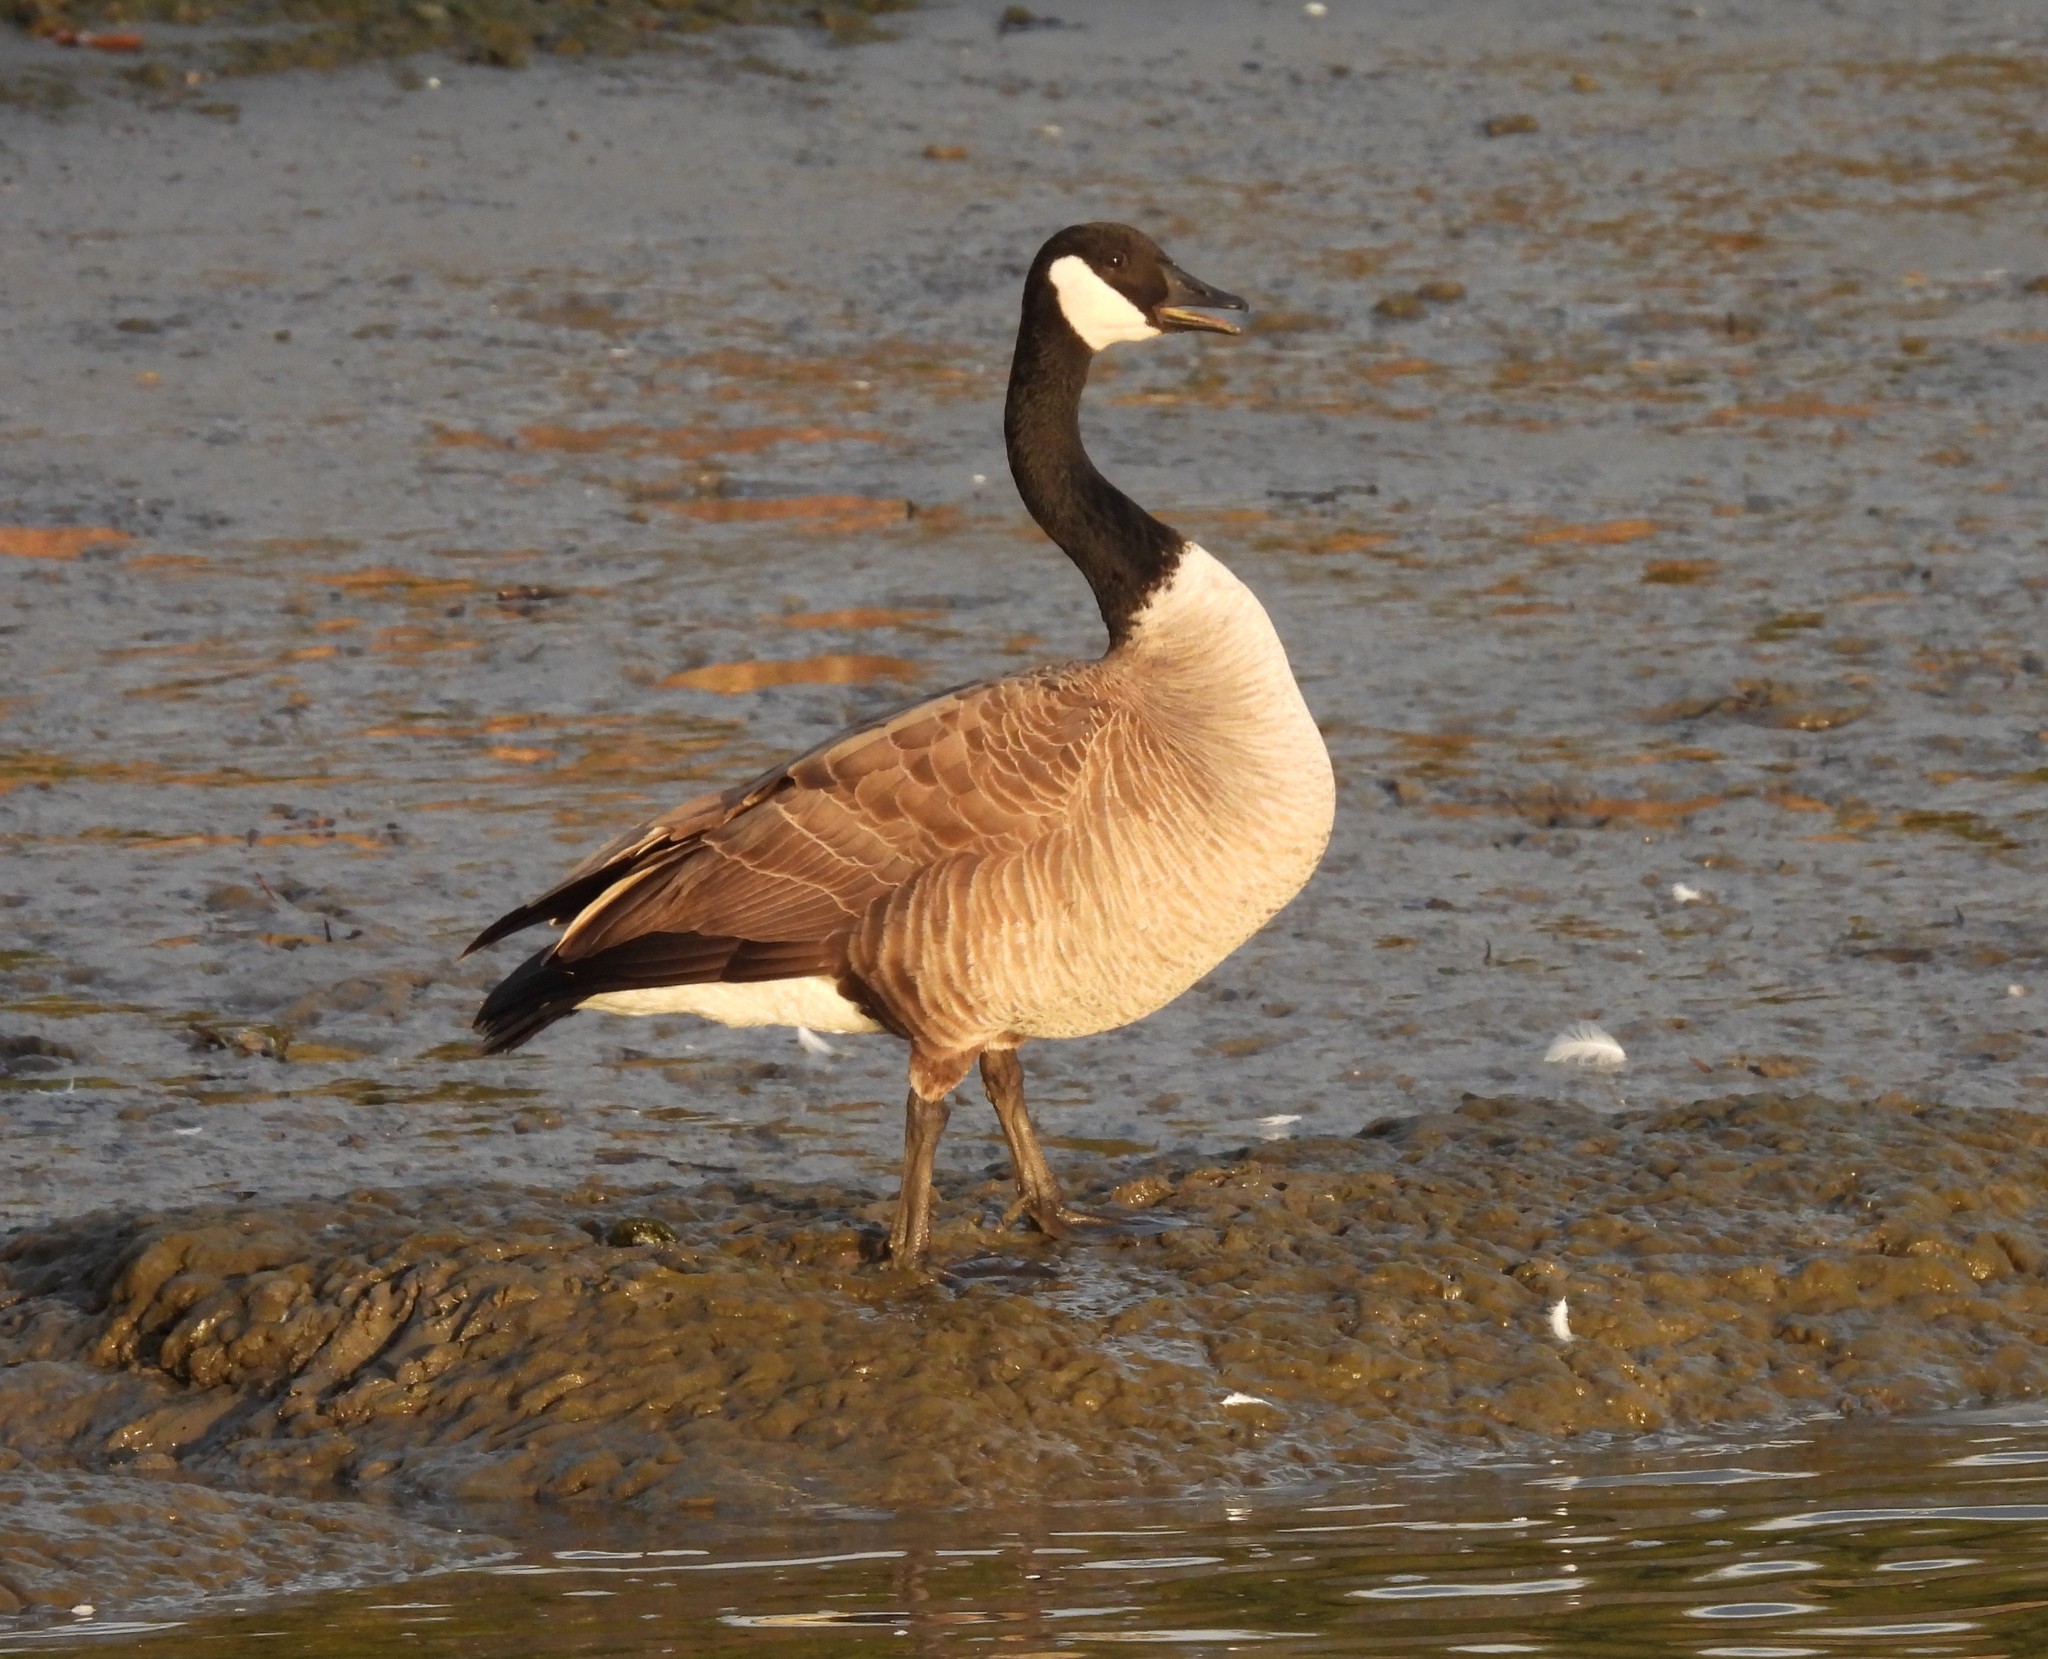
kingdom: Animalia
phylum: Chordata
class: Aves
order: Anseriformes
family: Anatidae
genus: Branta
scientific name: Branta canadensis
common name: Canada goose
